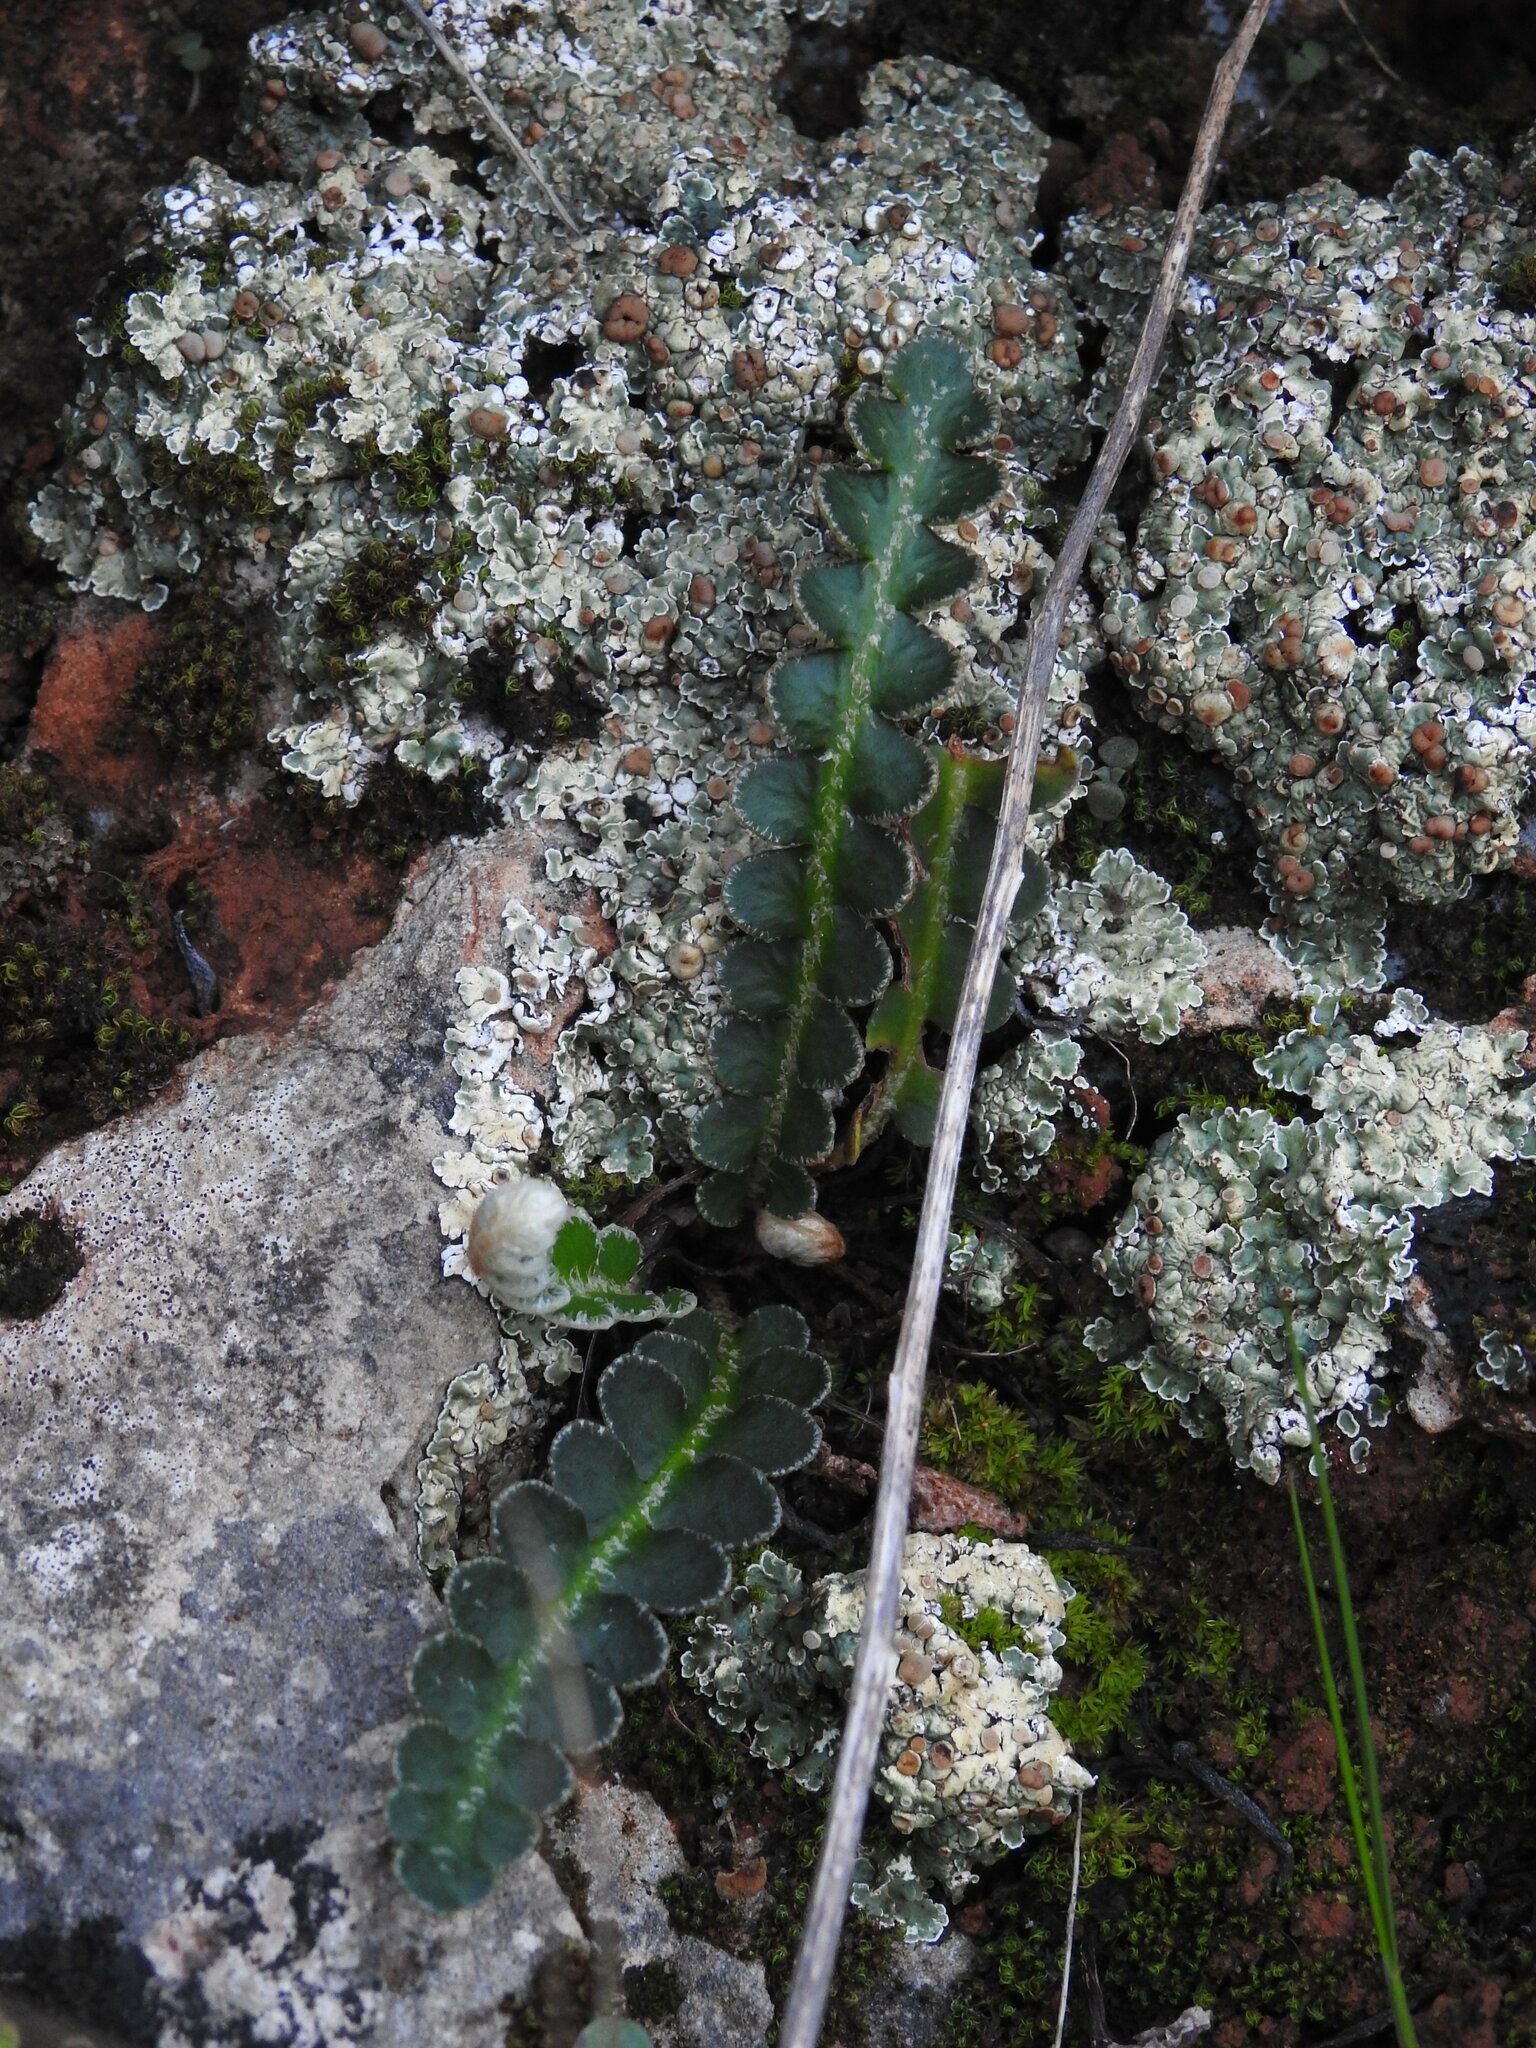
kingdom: Plantae
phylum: Tracheophyta
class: Polypodiopsida
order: Polypodiales
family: Aspleniaceae
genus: Asplenium
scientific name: Asplenium ceterach
